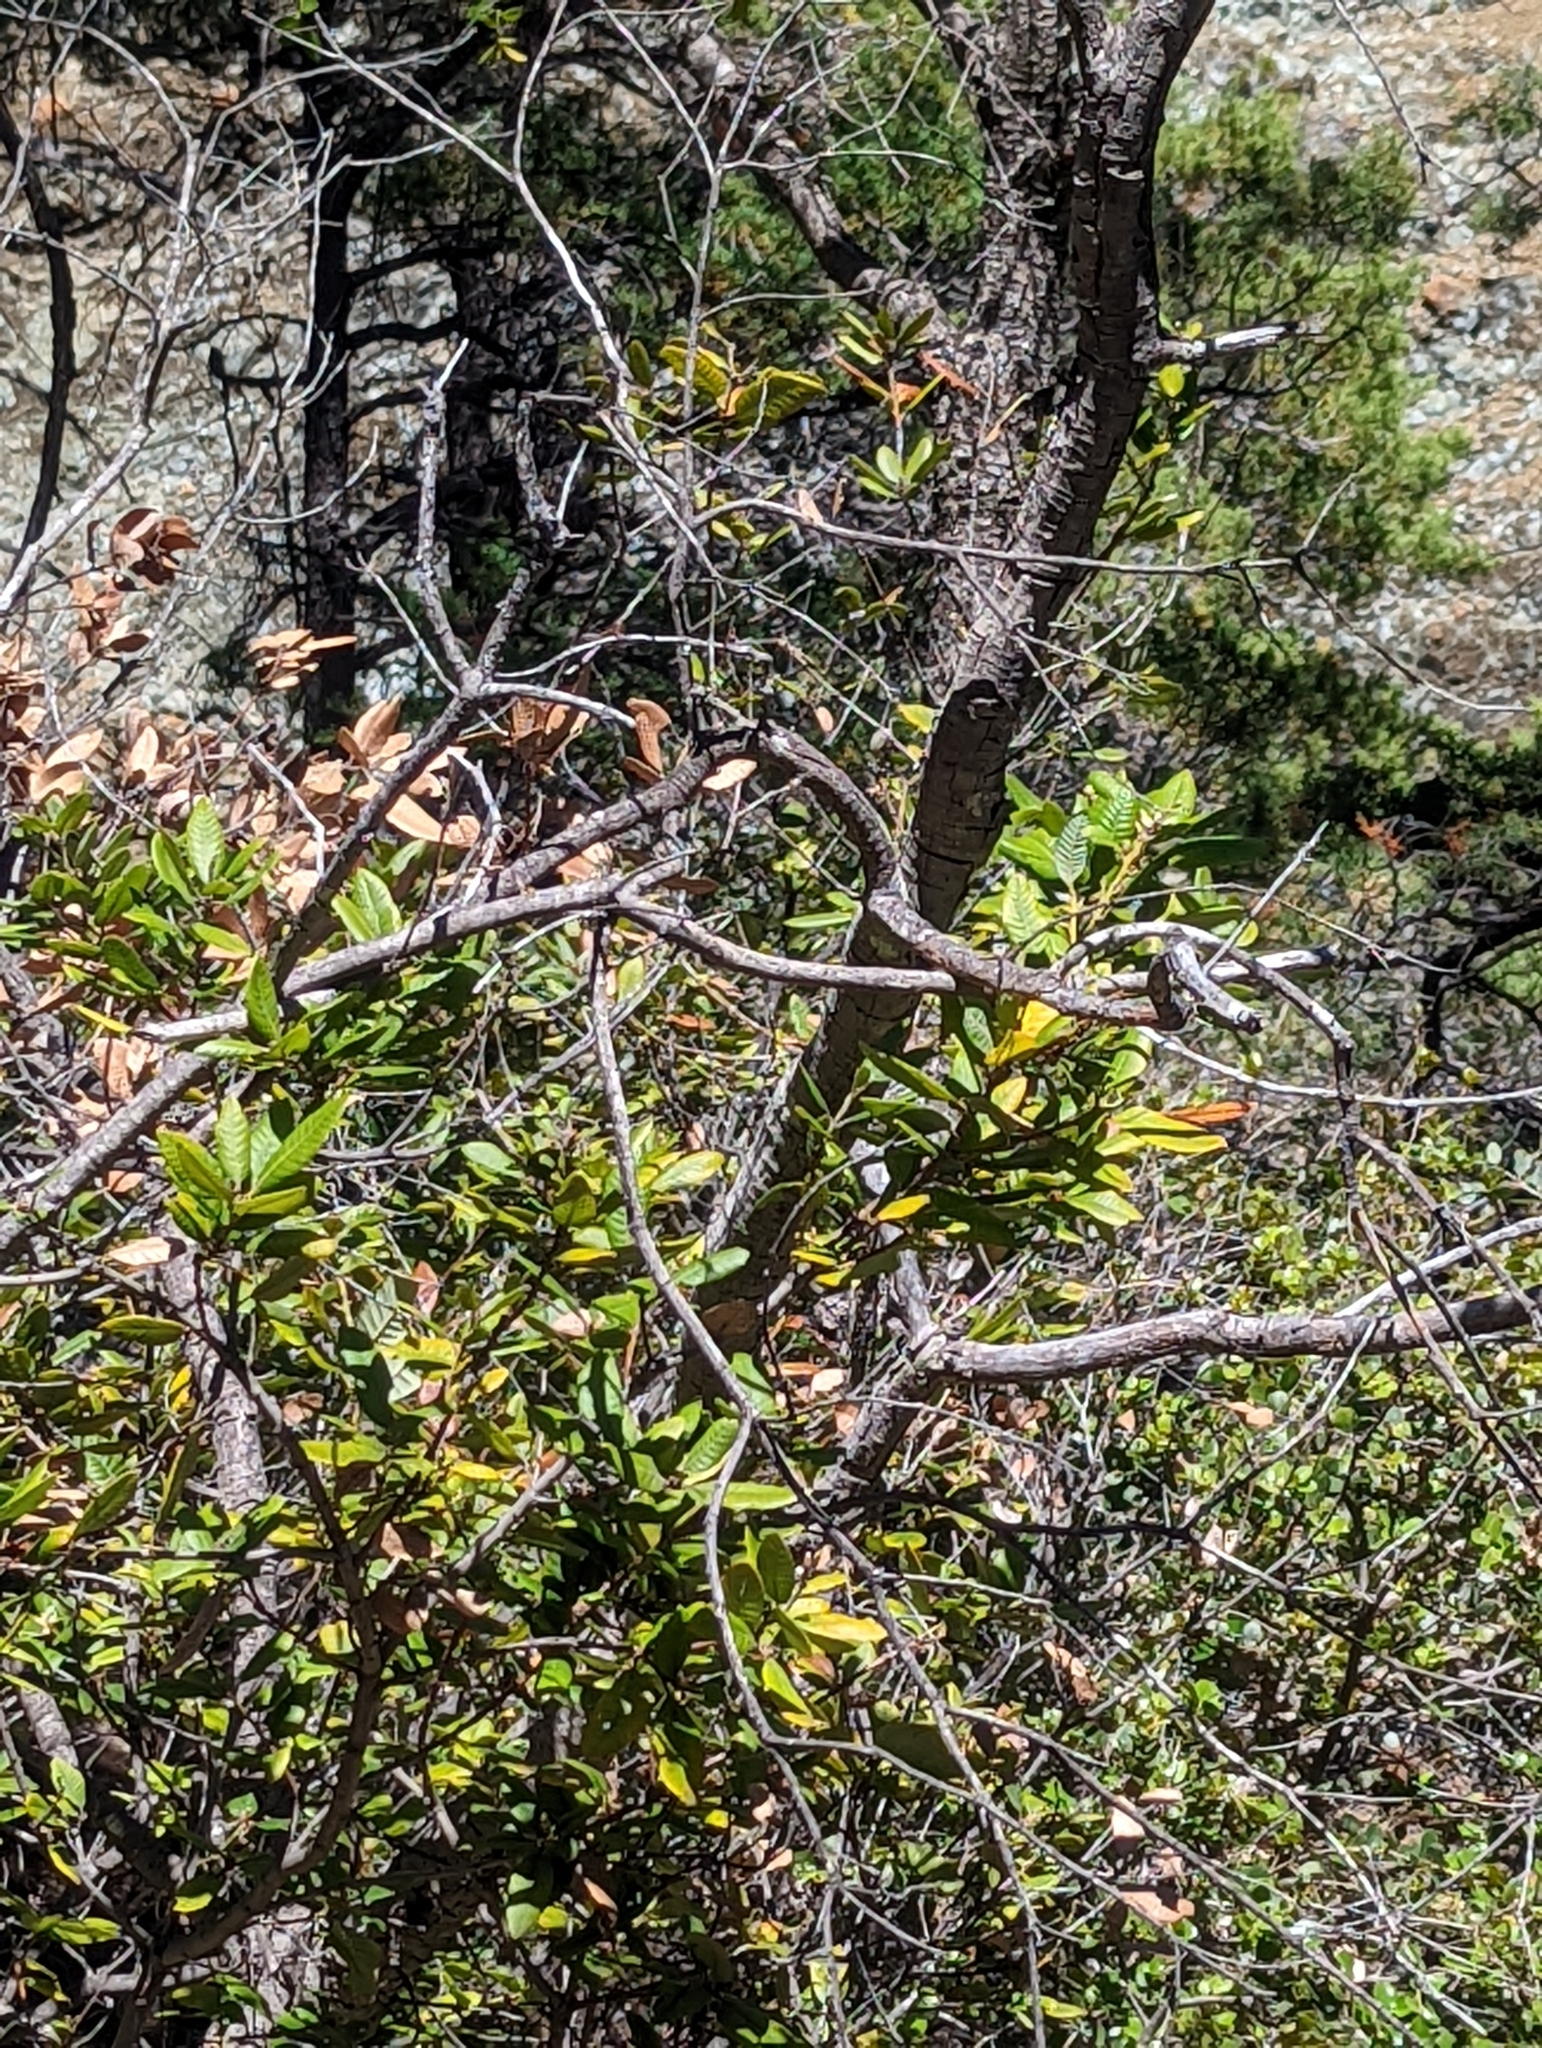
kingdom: Plantae
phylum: Tracheophyta
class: Magnoliopsida
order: Fagales
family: Fagaceae
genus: Notholithocarpus
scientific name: Notholithocarpus densiflorus
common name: Tan bark oak
